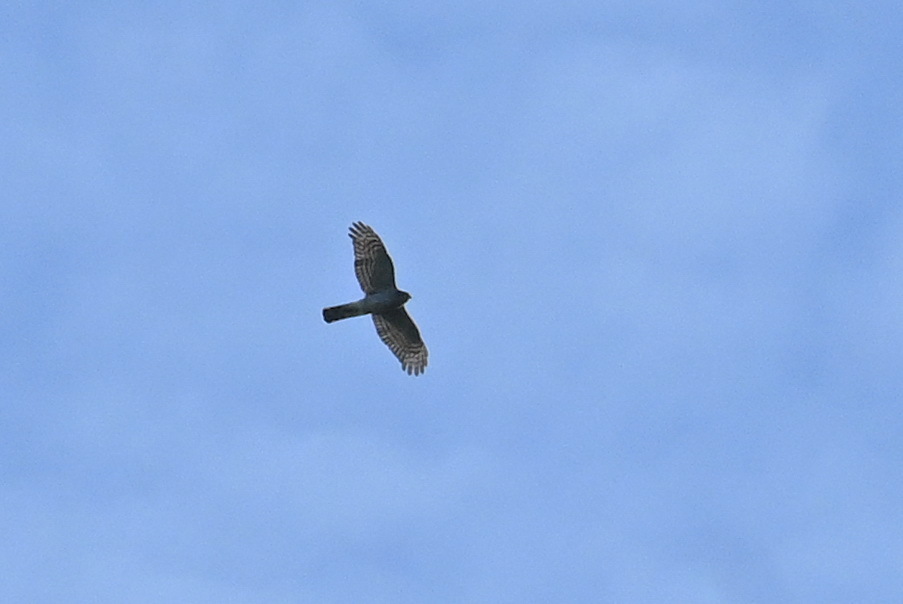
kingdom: Animalia
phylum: Chordata
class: Aves
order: Accipitriformes
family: Accipitridae
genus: Accipiter
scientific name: Accipiter nisus
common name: Eurasian sparrowhawk
